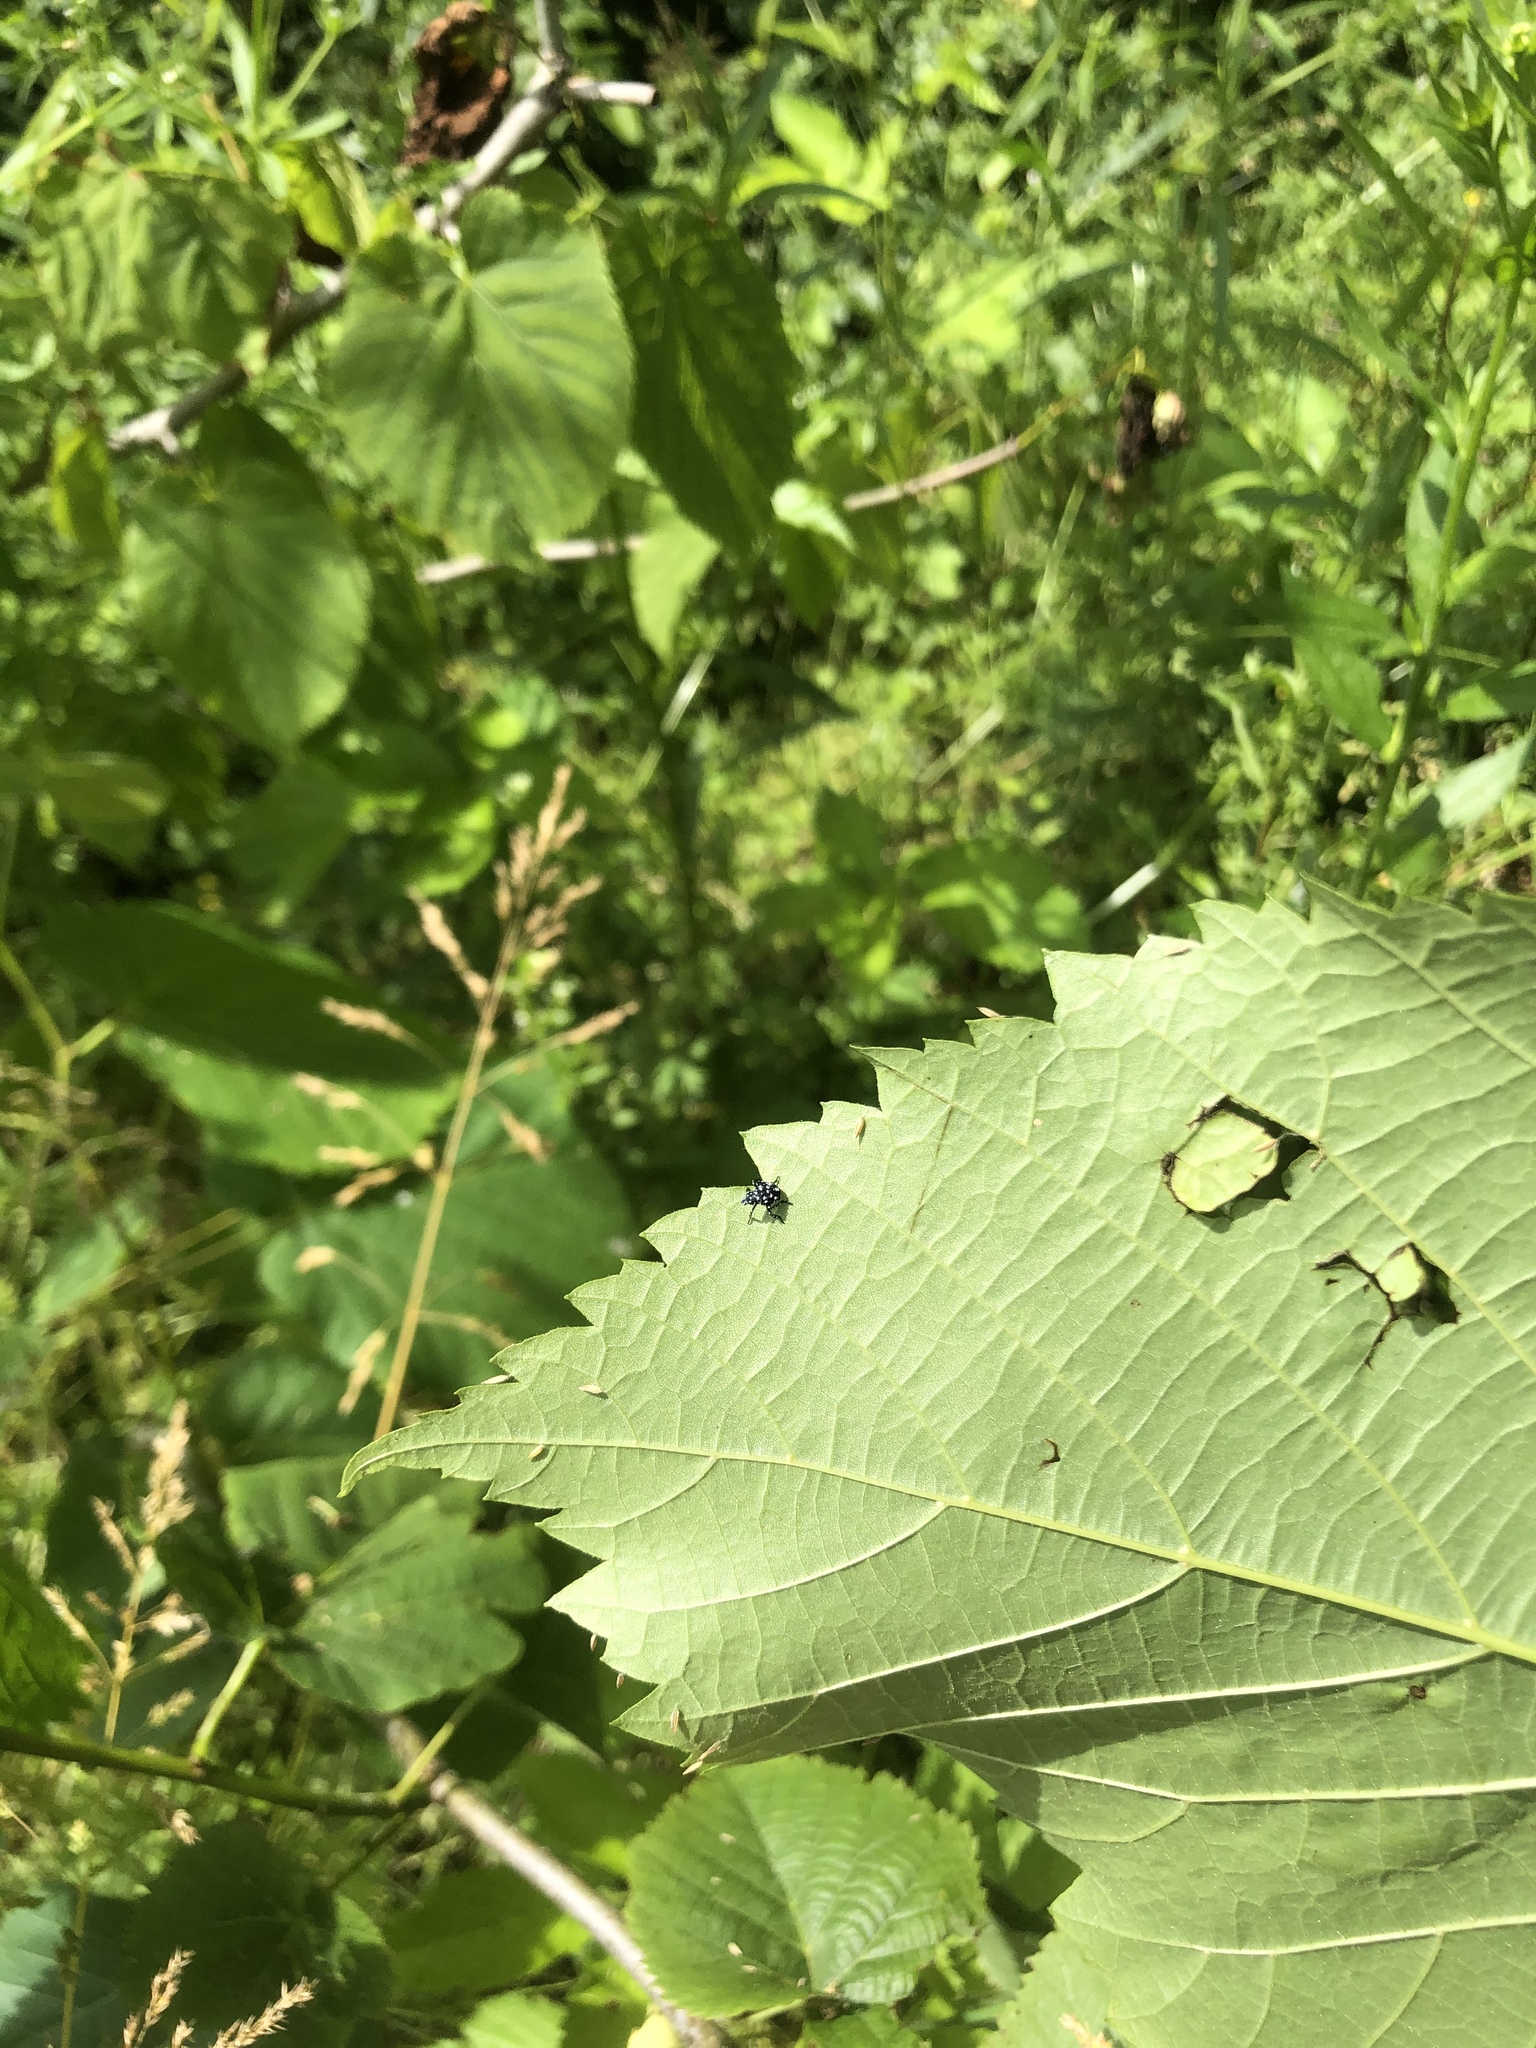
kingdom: Animalia
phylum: Arthropoda
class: Insecta
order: Hemiptera
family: Fulgoridae
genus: Lycorma
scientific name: Lycorma delicatula
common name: Spotted lanternfly
